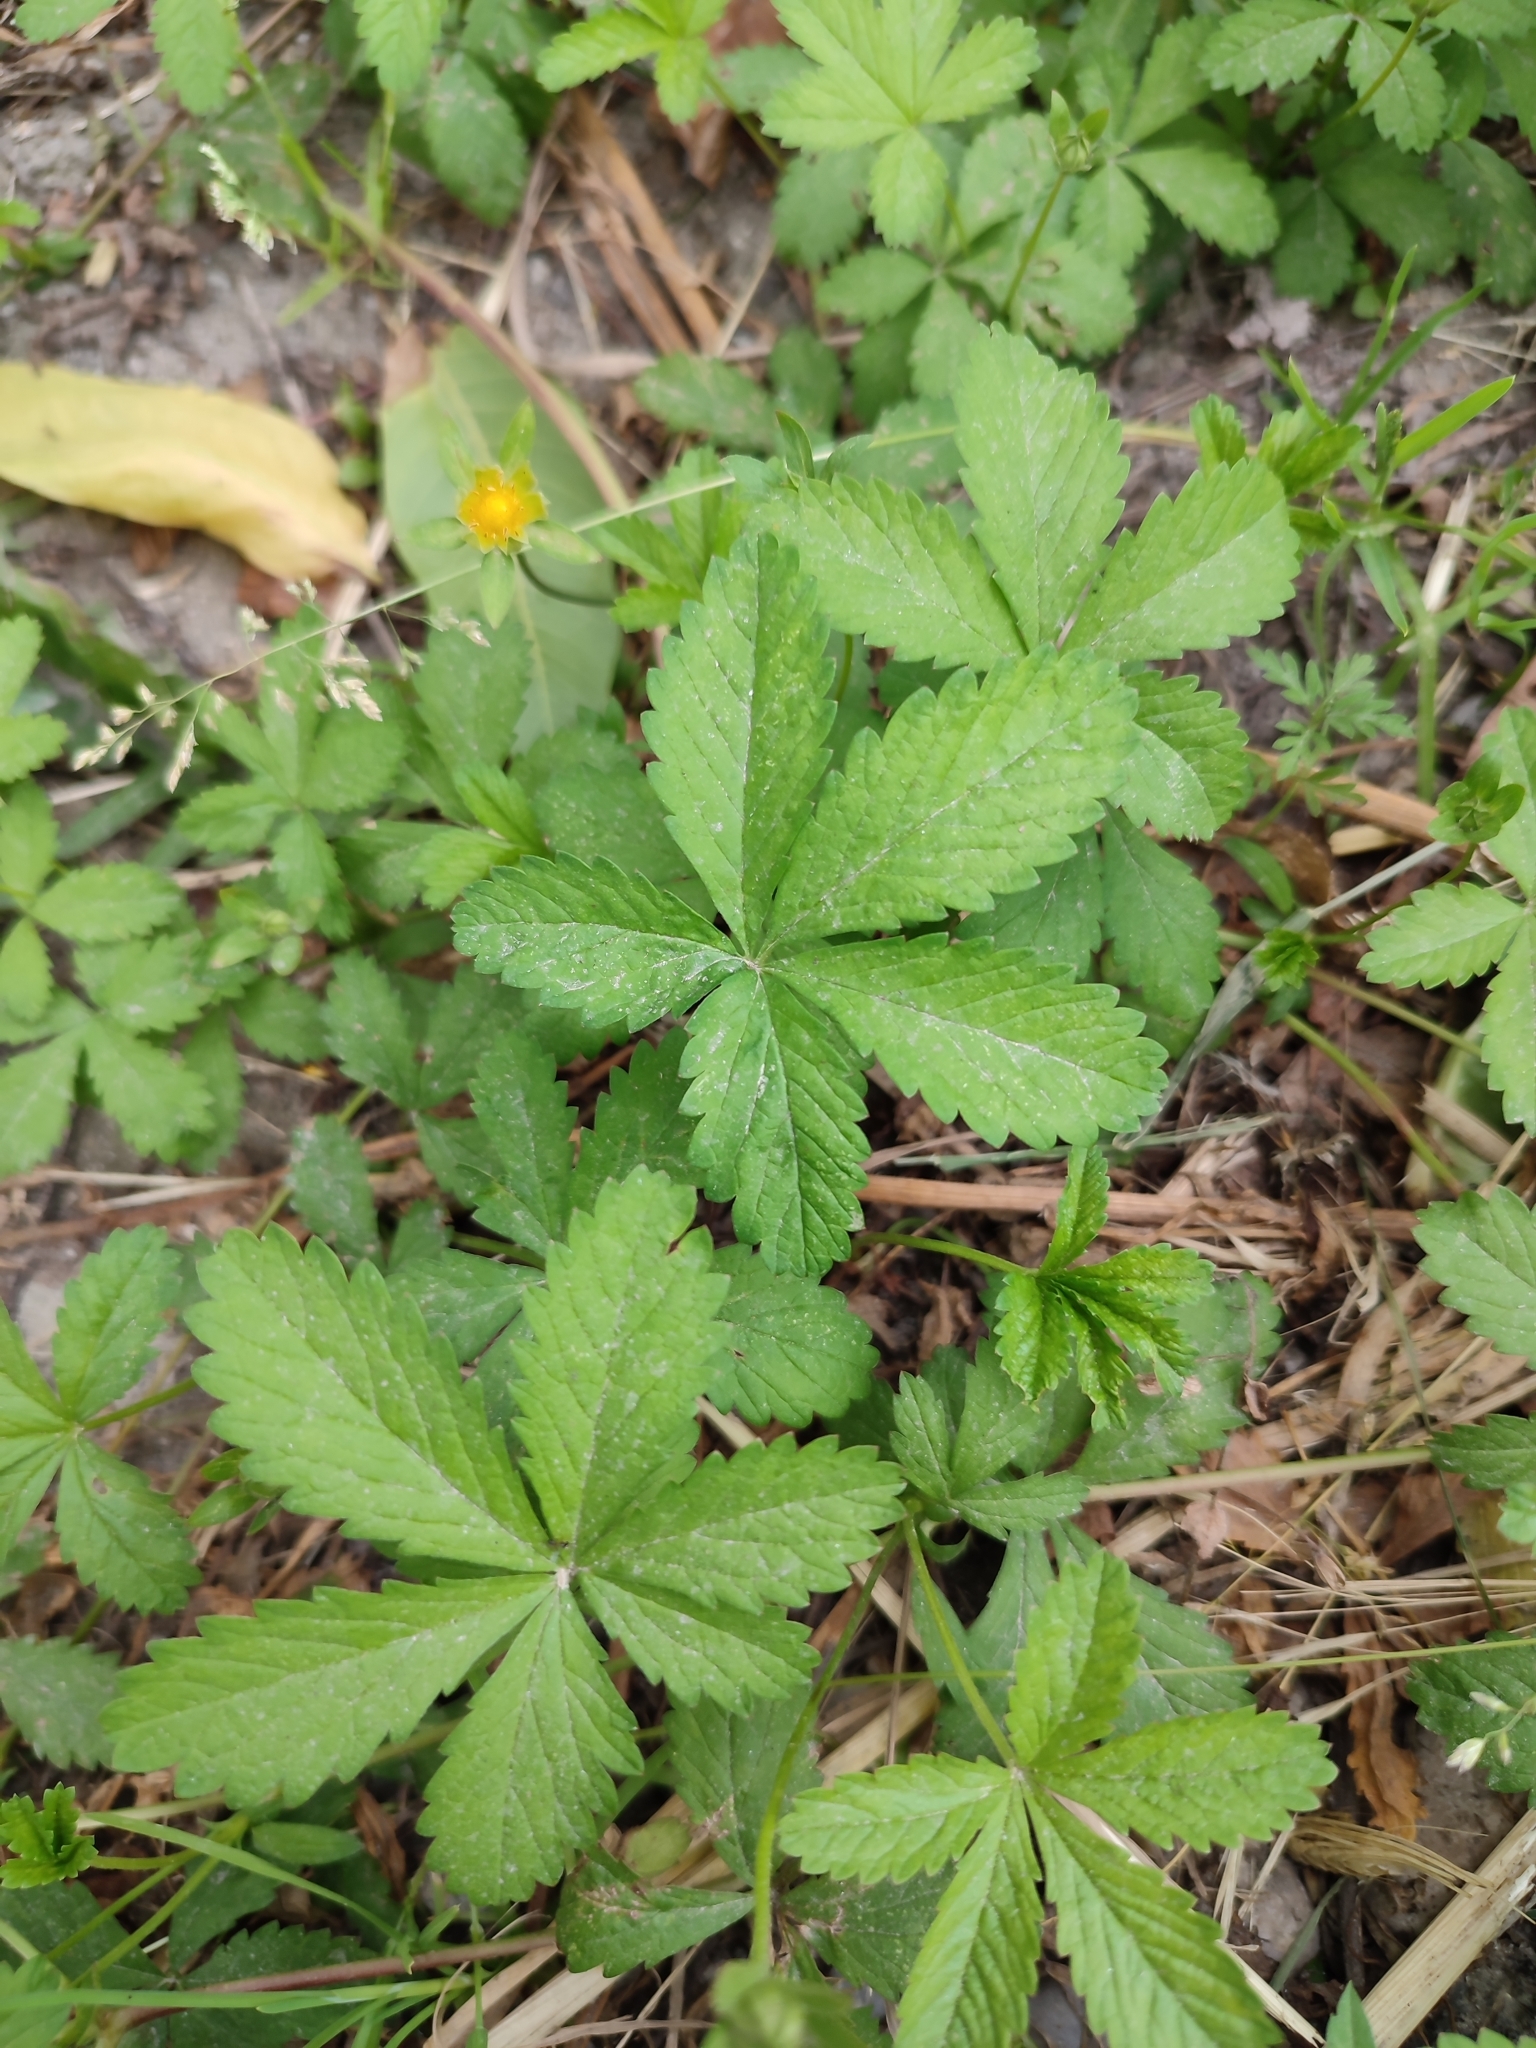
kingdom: Plantae
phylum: Tracheophyta
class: Magnoliopsida
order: Rosales
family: Rosaceae
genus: Potentilla
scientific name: Potentilla reptans
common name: Creeping cinquefoil
